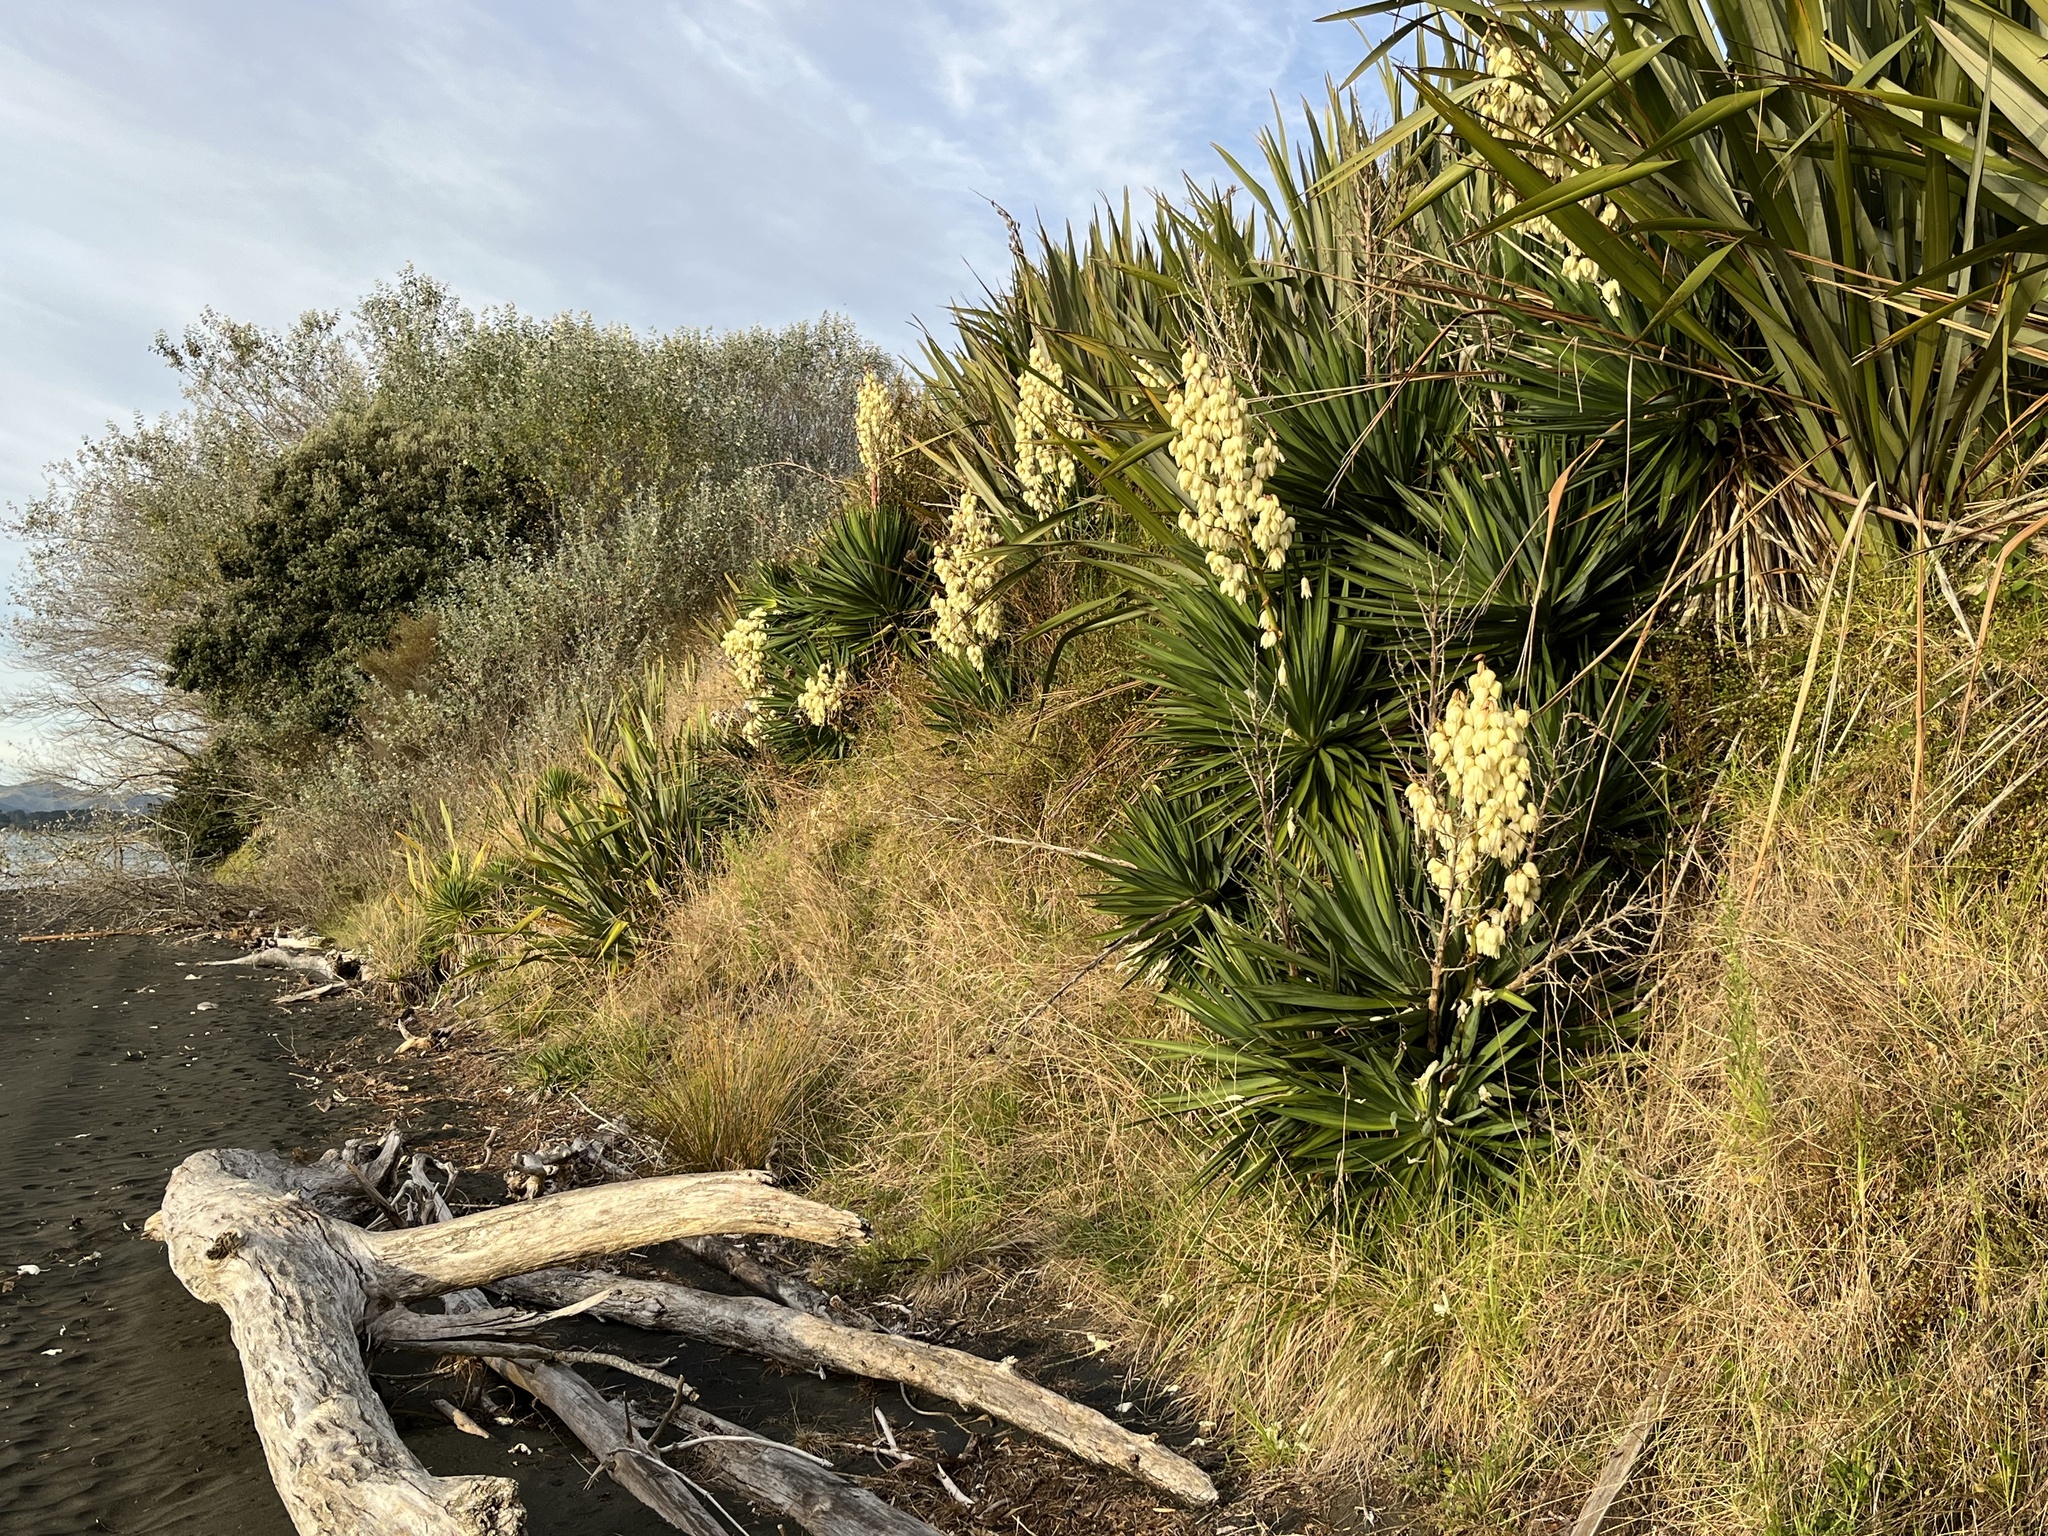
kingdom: Plantae
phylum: Tracheophyta
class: Liliopsida
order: Asparagales
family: Asparagaceae
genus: Yucca
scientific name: Yucca gloriosa
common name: Spanish-dagger
